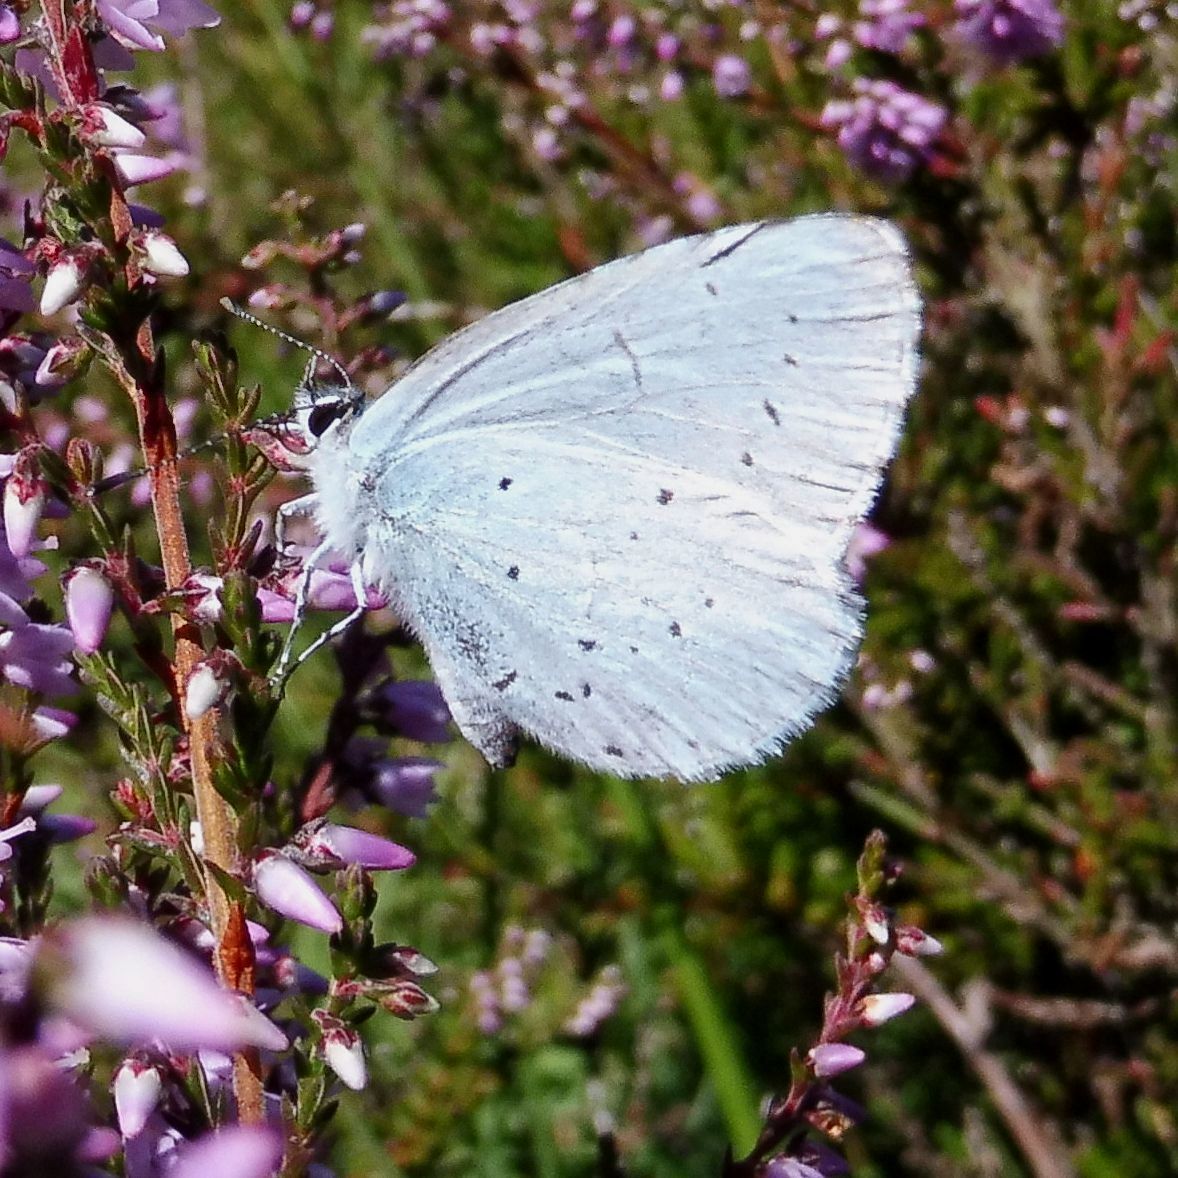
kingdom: Animalia
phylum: Arthropoda
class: Insecta
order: Lepidoptera
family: Lycaenidae
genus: Celastrina
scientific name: Celastrina argiolus
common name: Holly blue
